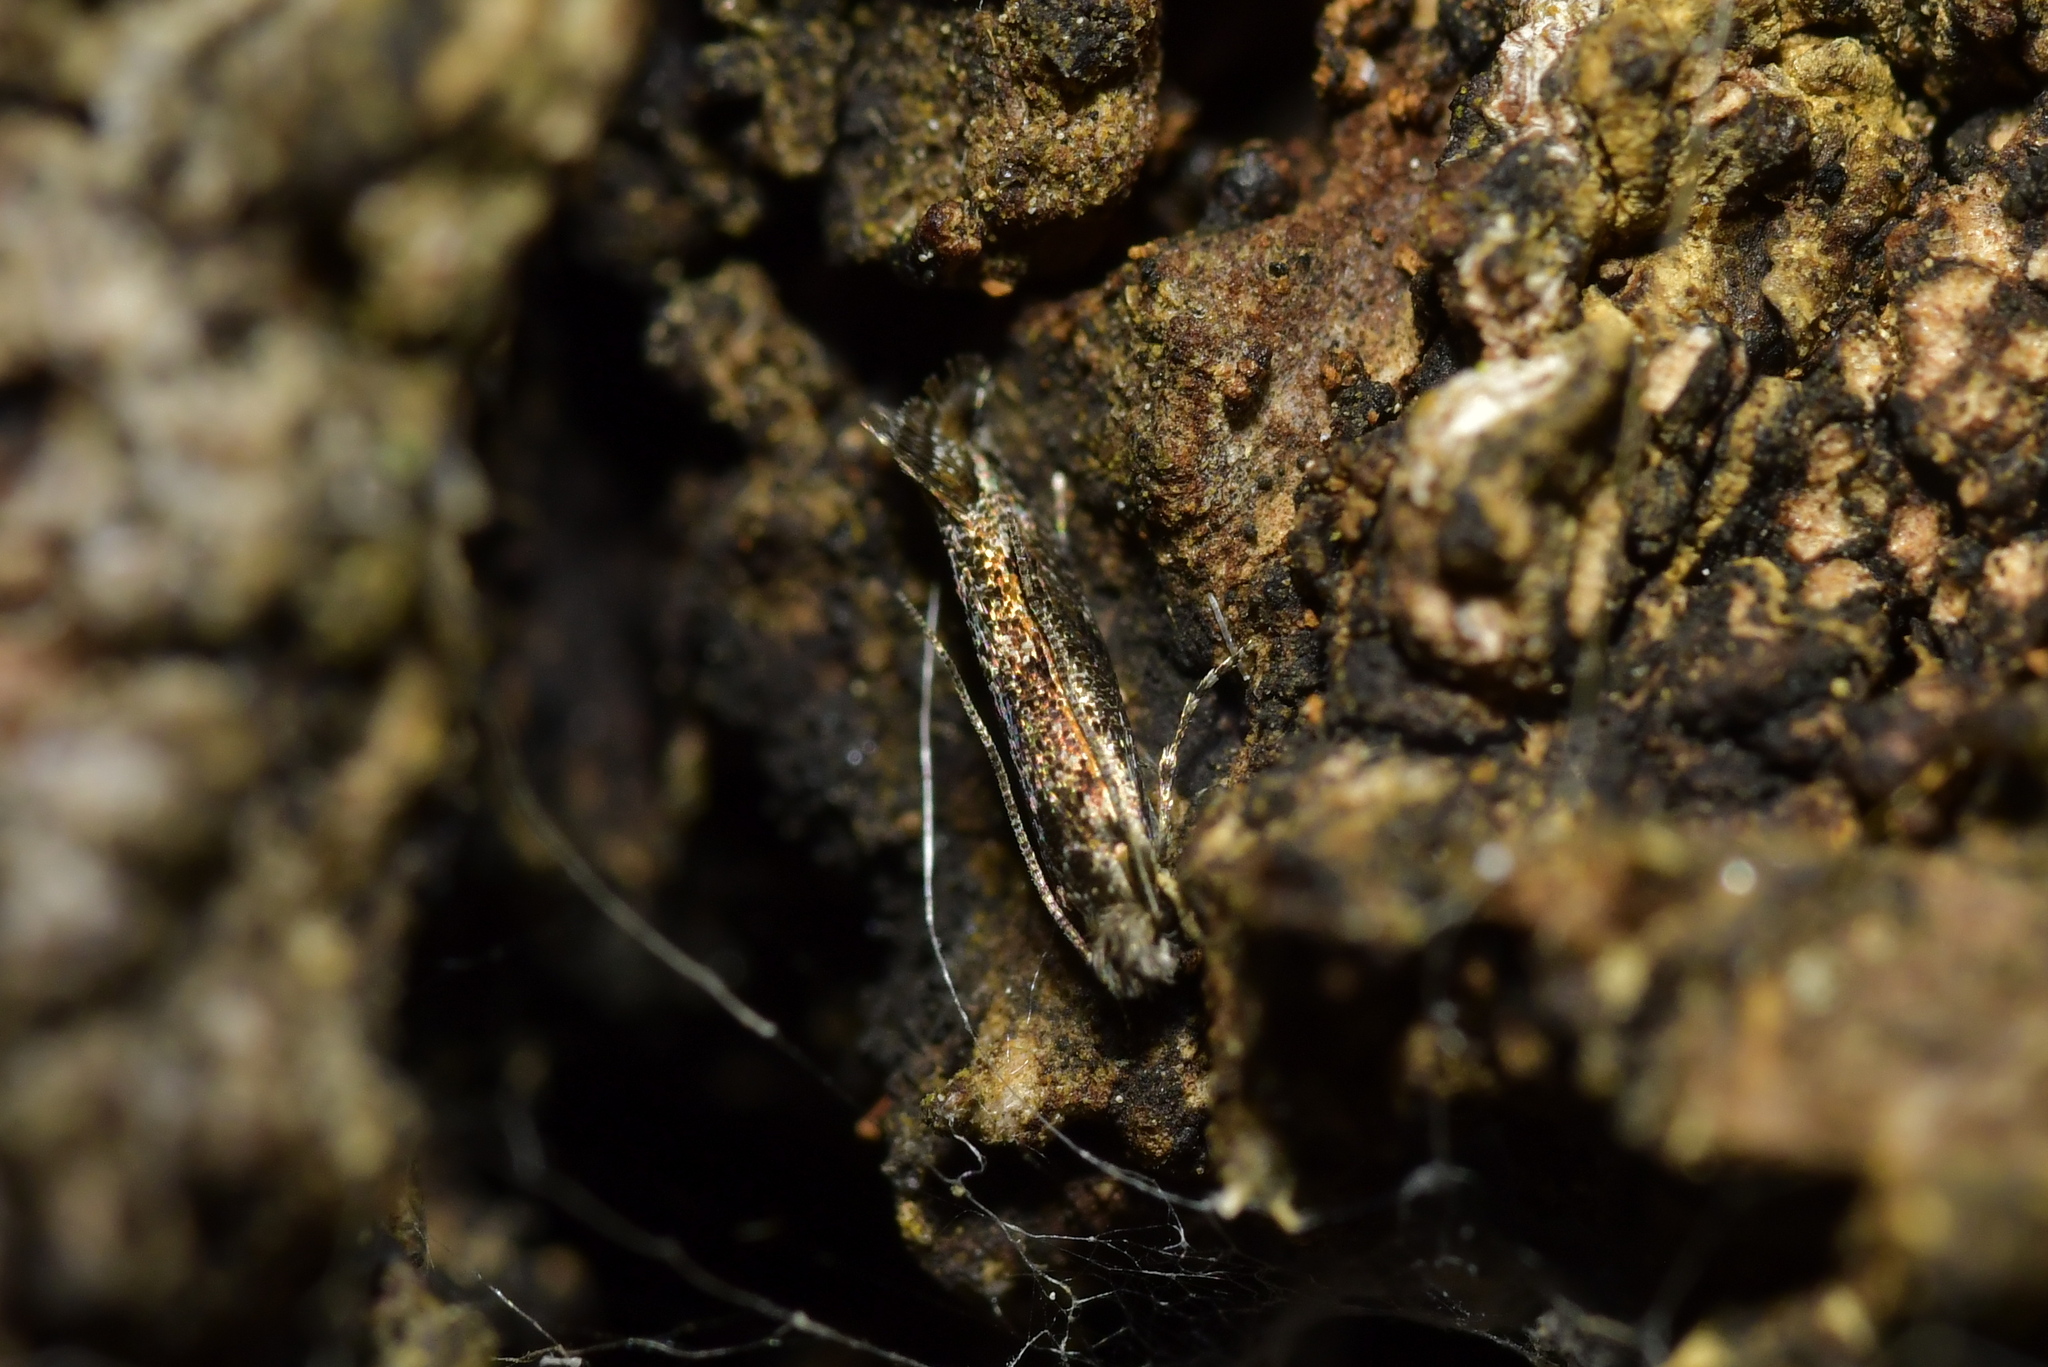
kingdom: Animalia
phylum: Arthropoda
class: Insecta
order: Lepidoptera
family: Tineidae
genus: Erechthias
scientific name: Erechthias crypsimima
